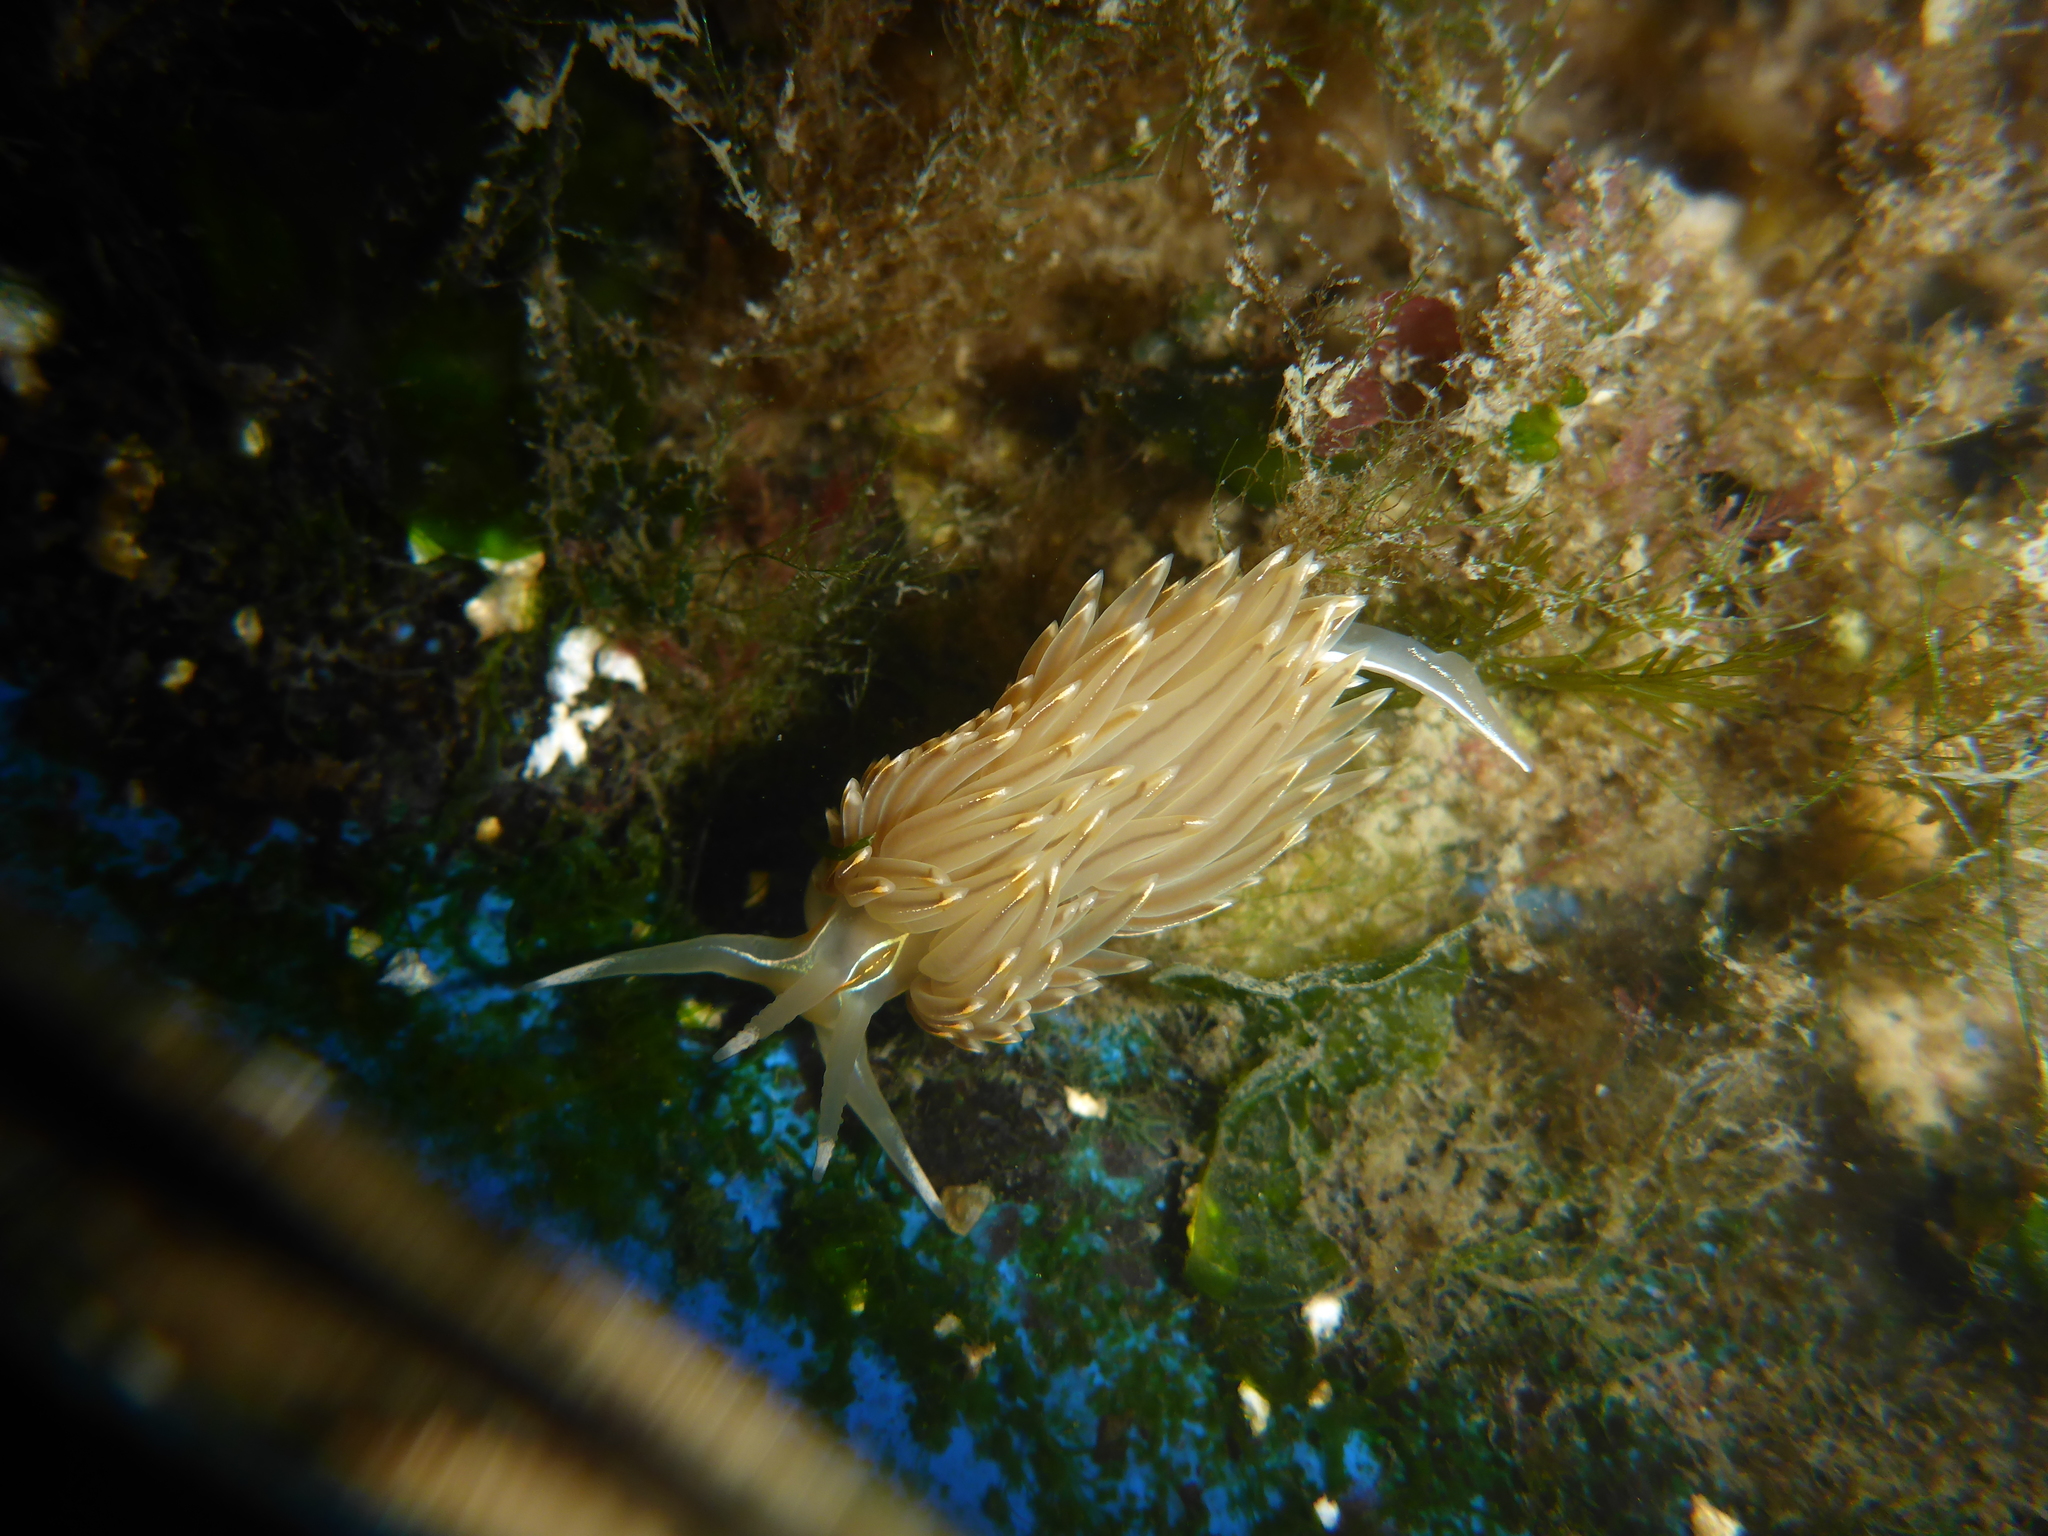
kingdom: Animalia
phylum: Mollusca
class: Gastropoda
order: Nudibranchia
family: Myrrhinidae
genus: Hermissenda
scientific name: Hermissenda crassicornis
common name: Hermissenda
